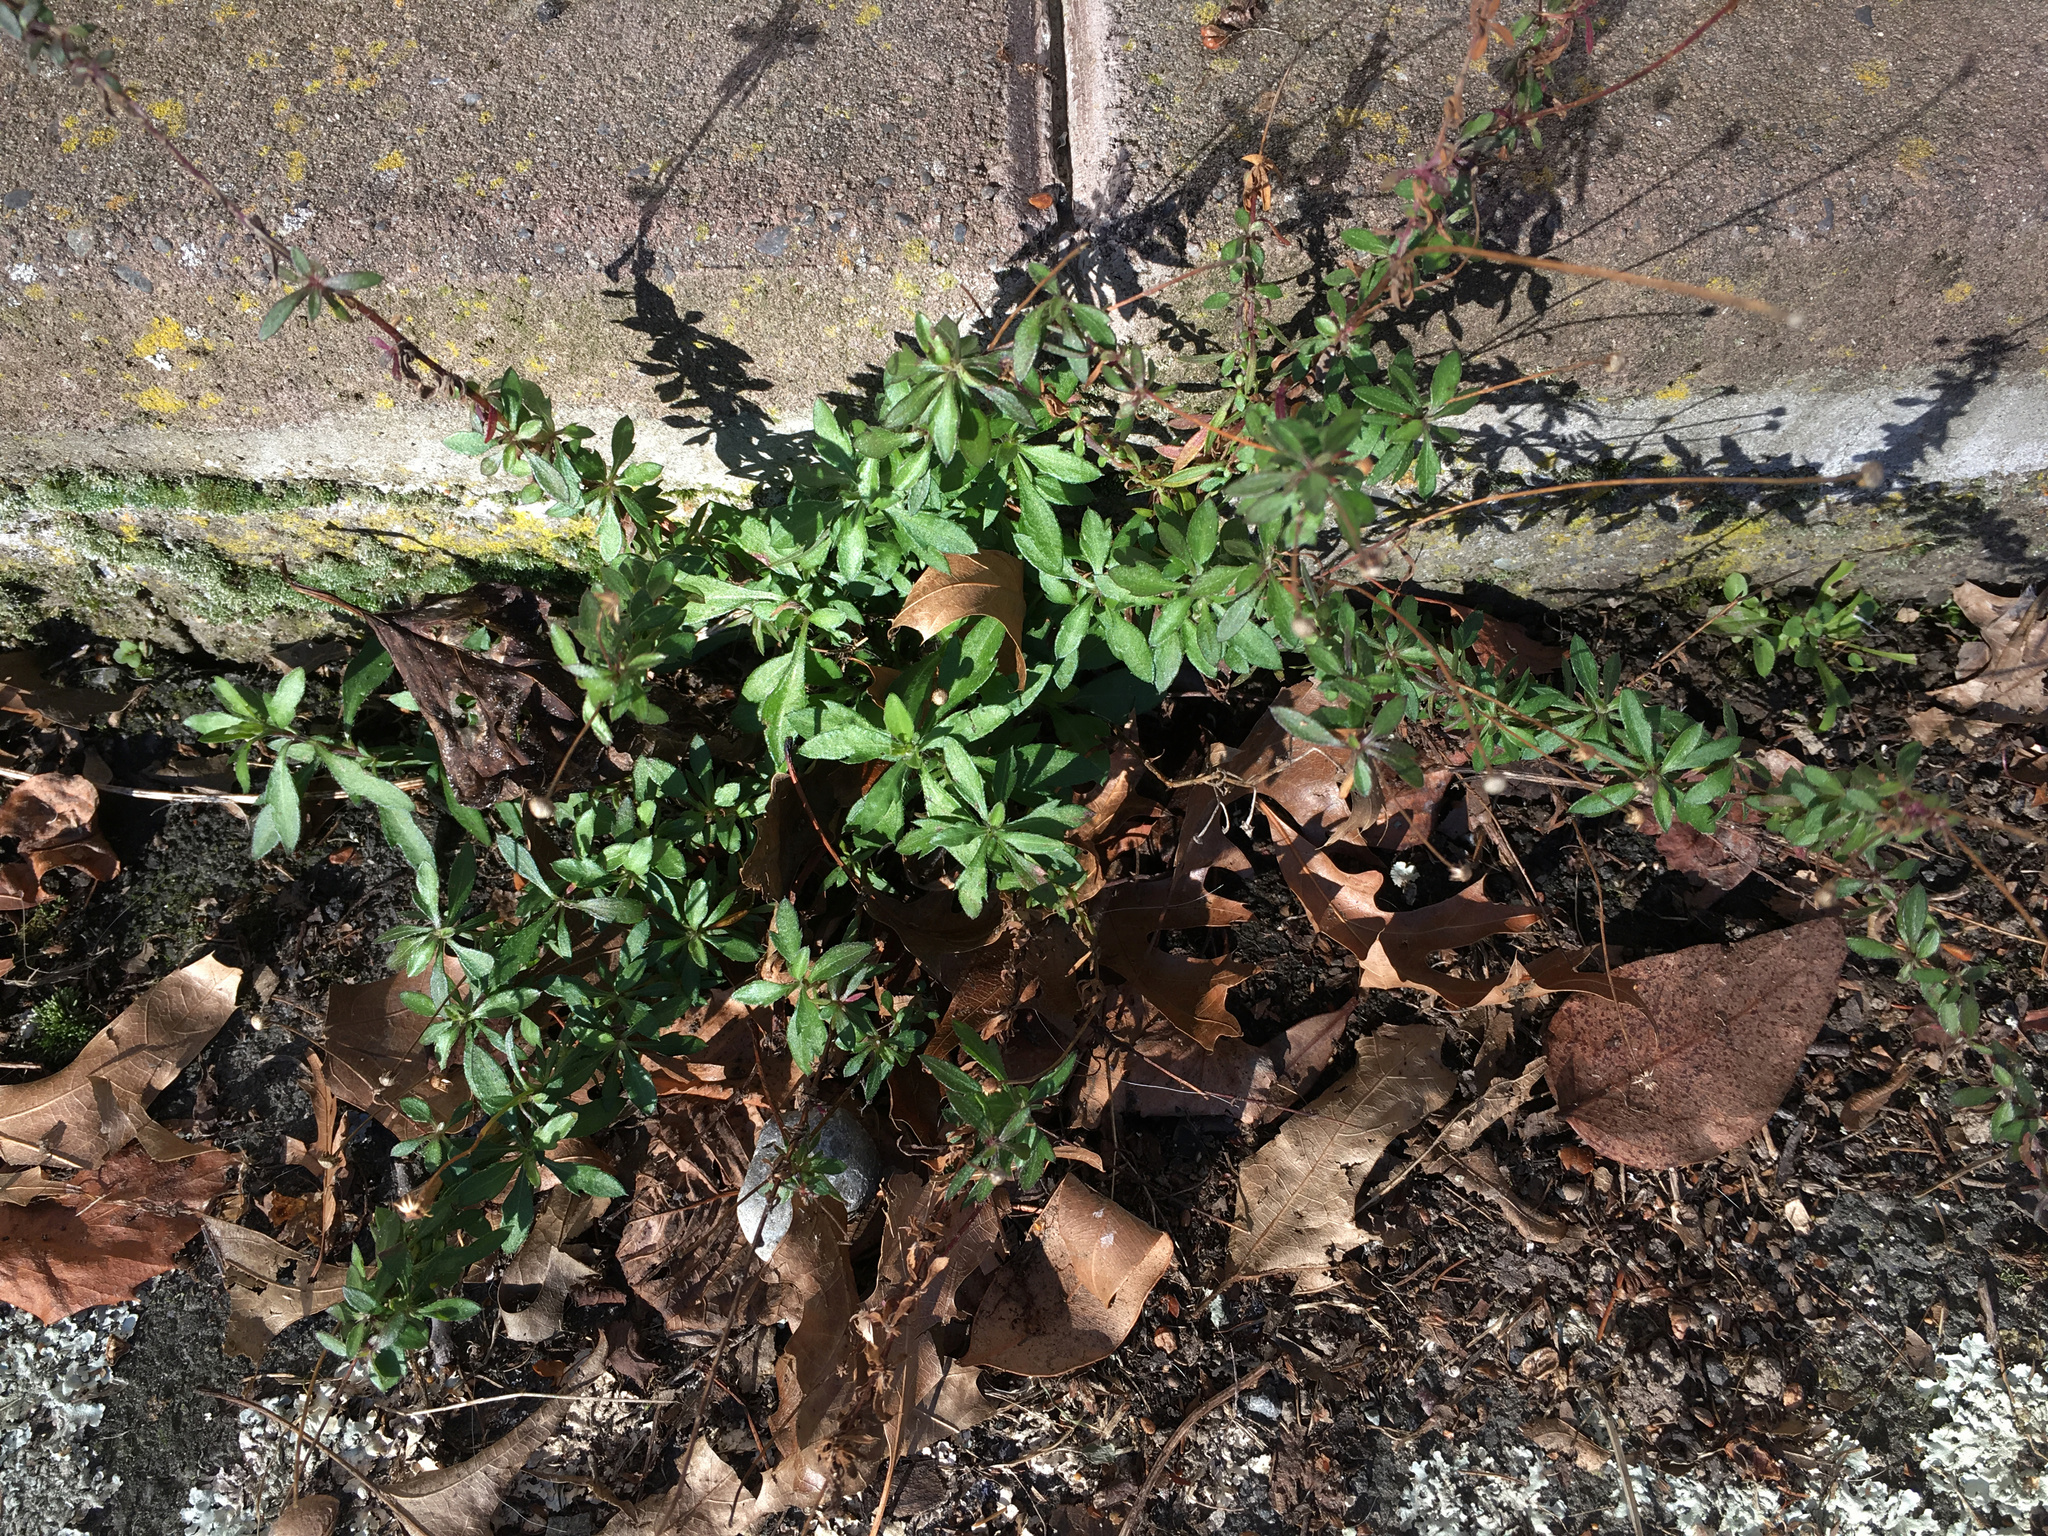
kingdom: Plantae
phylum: Tracheophyta
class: Magnoliopsida
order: Asterales
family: Asteraceae
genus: Erigeron
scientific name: Erigeron karvinskianus
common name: Mexican fleabane
